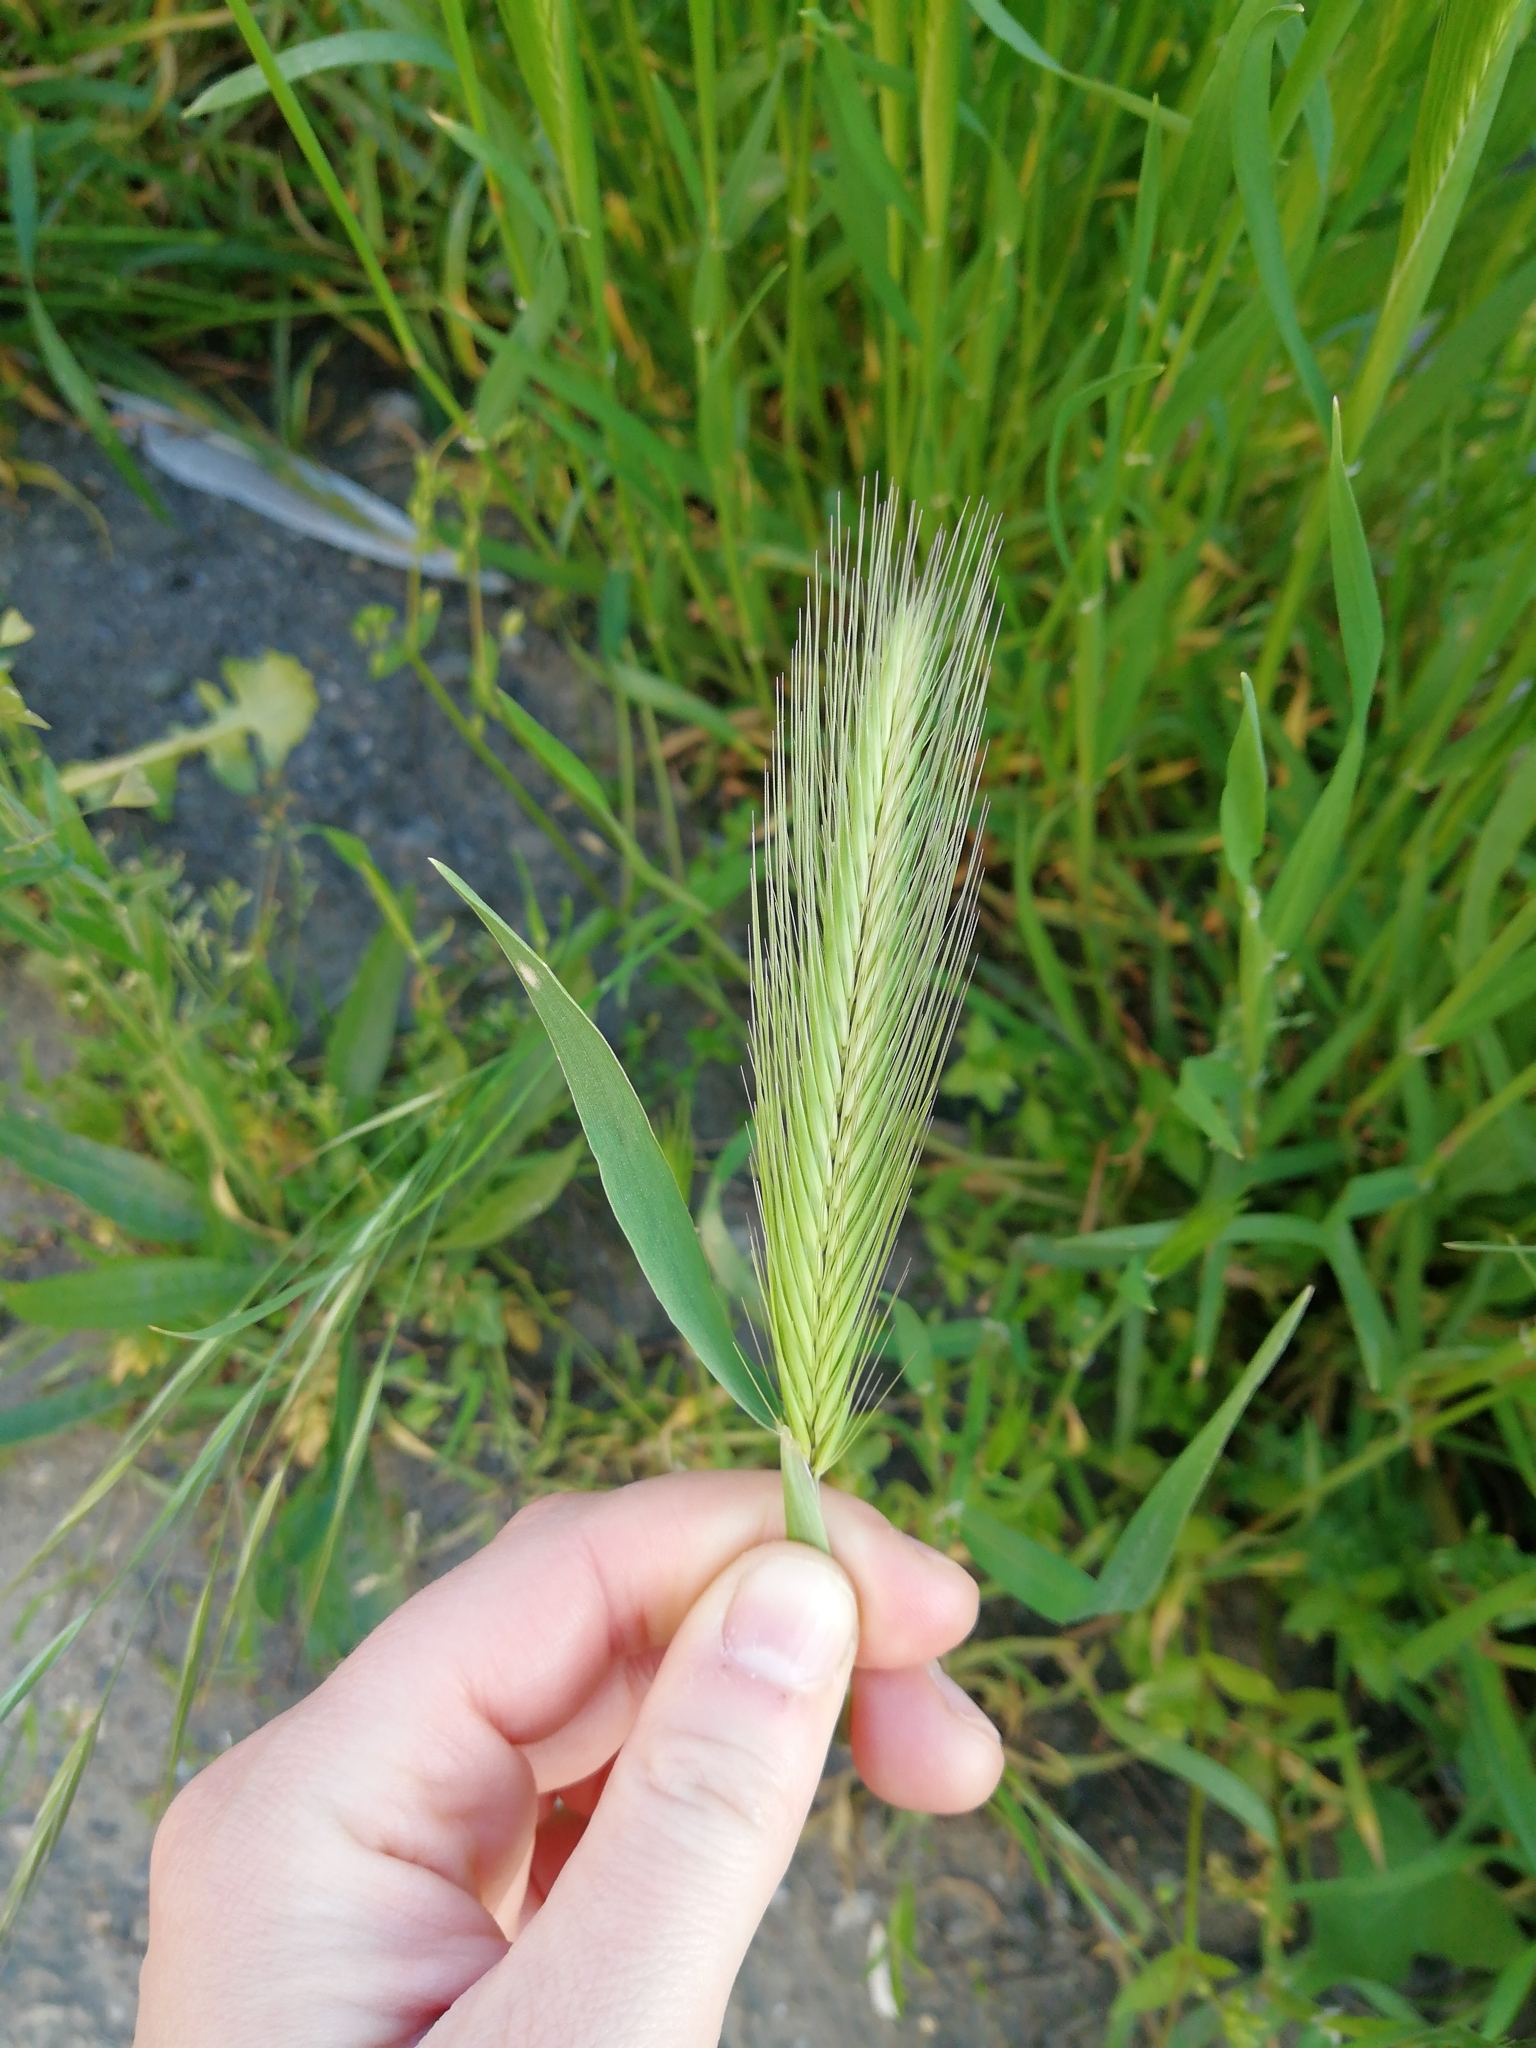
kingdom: Plantae
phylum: Tracheophyta
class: Liliopsida
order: Poales
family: Poaceae
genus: Hordeum
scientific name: Hordeum murinum
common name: Wall barley
